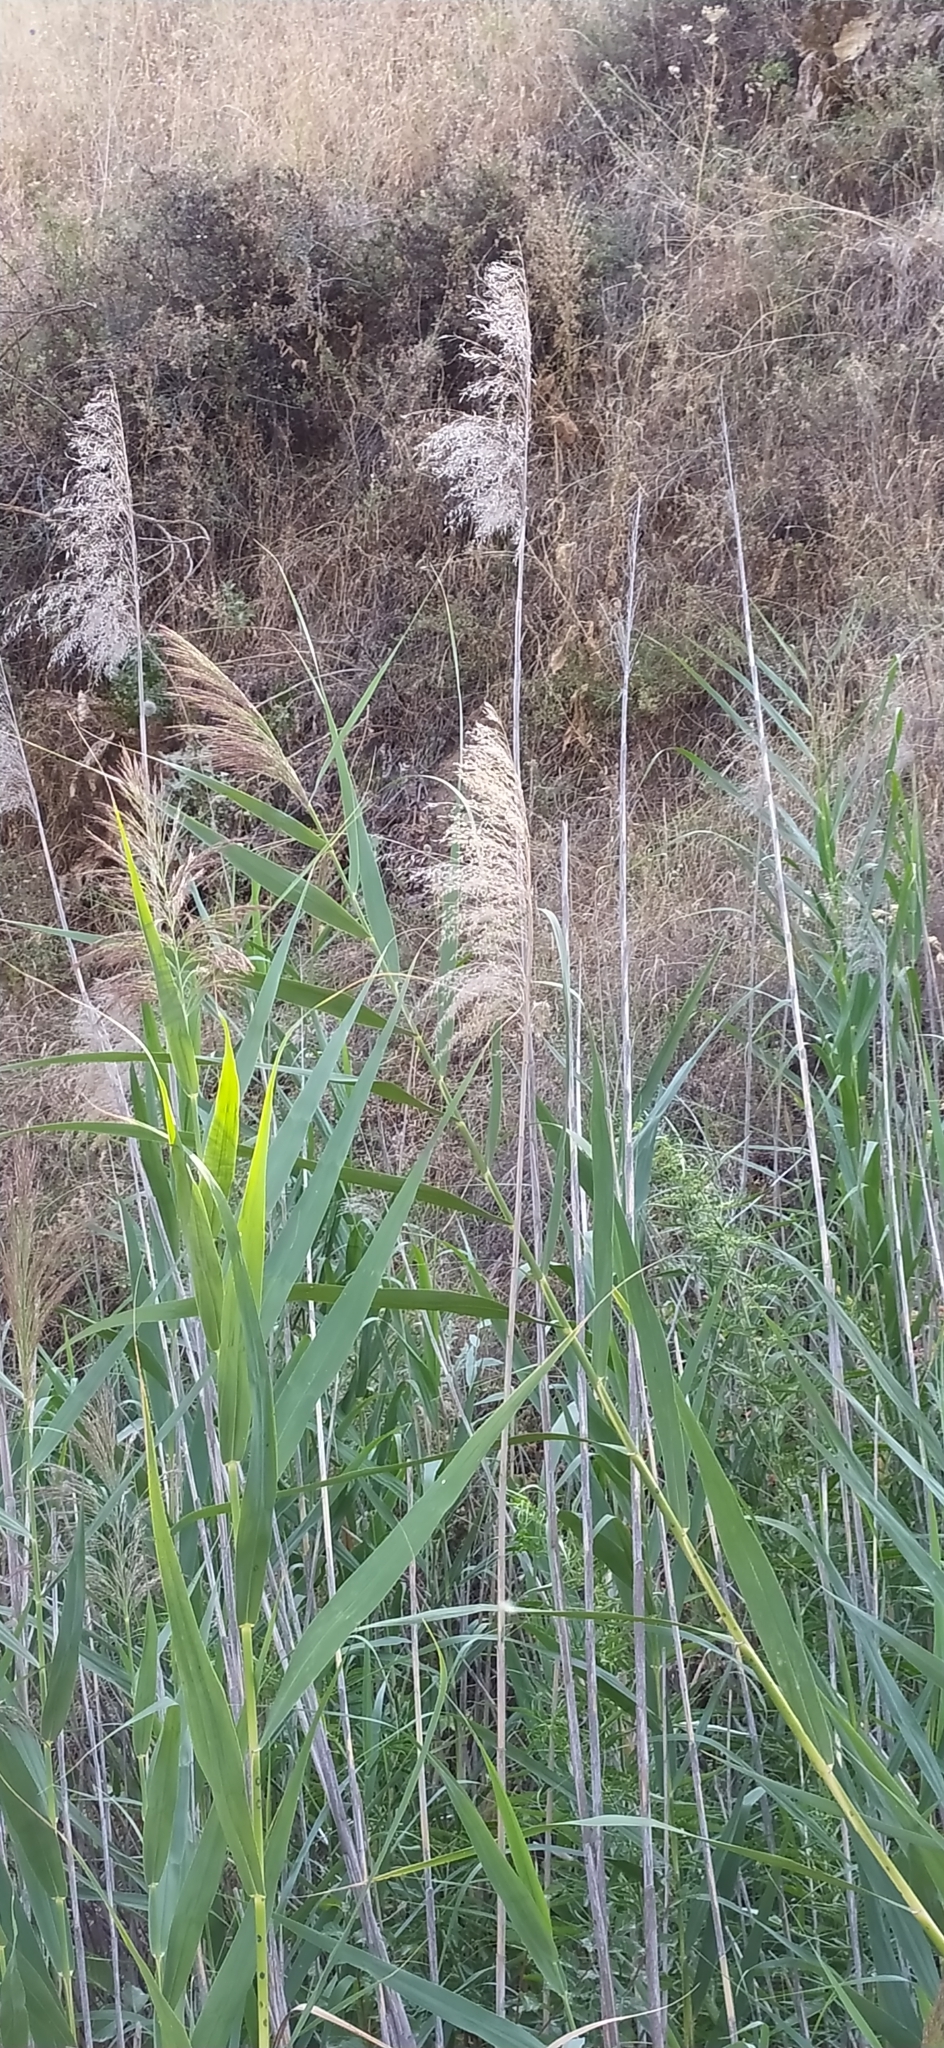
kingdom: Plantae
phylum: Tracheophyta
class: Liliopsida
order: Poales
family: Poaceae
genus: Phragmites
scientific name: Phragmites australis
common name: Common reed
